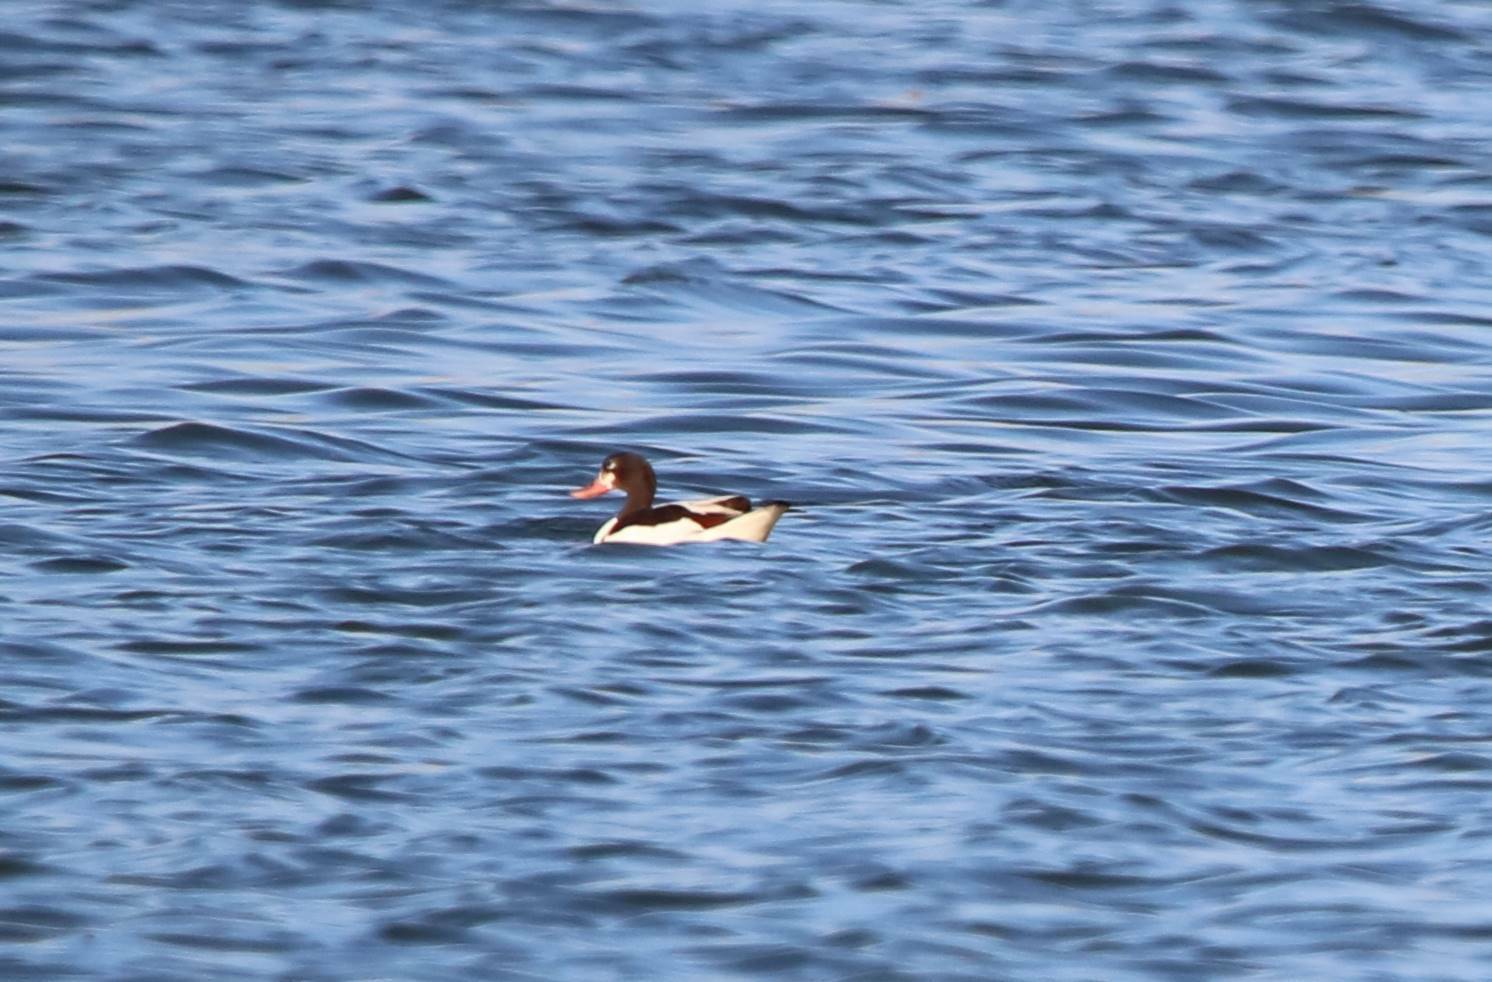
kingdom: Animalia
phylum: Chordata
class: Aves
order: Anseriformes
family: Anatidae
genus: Tadorna
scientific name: Tadorna tadorna
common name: Common shelduck
